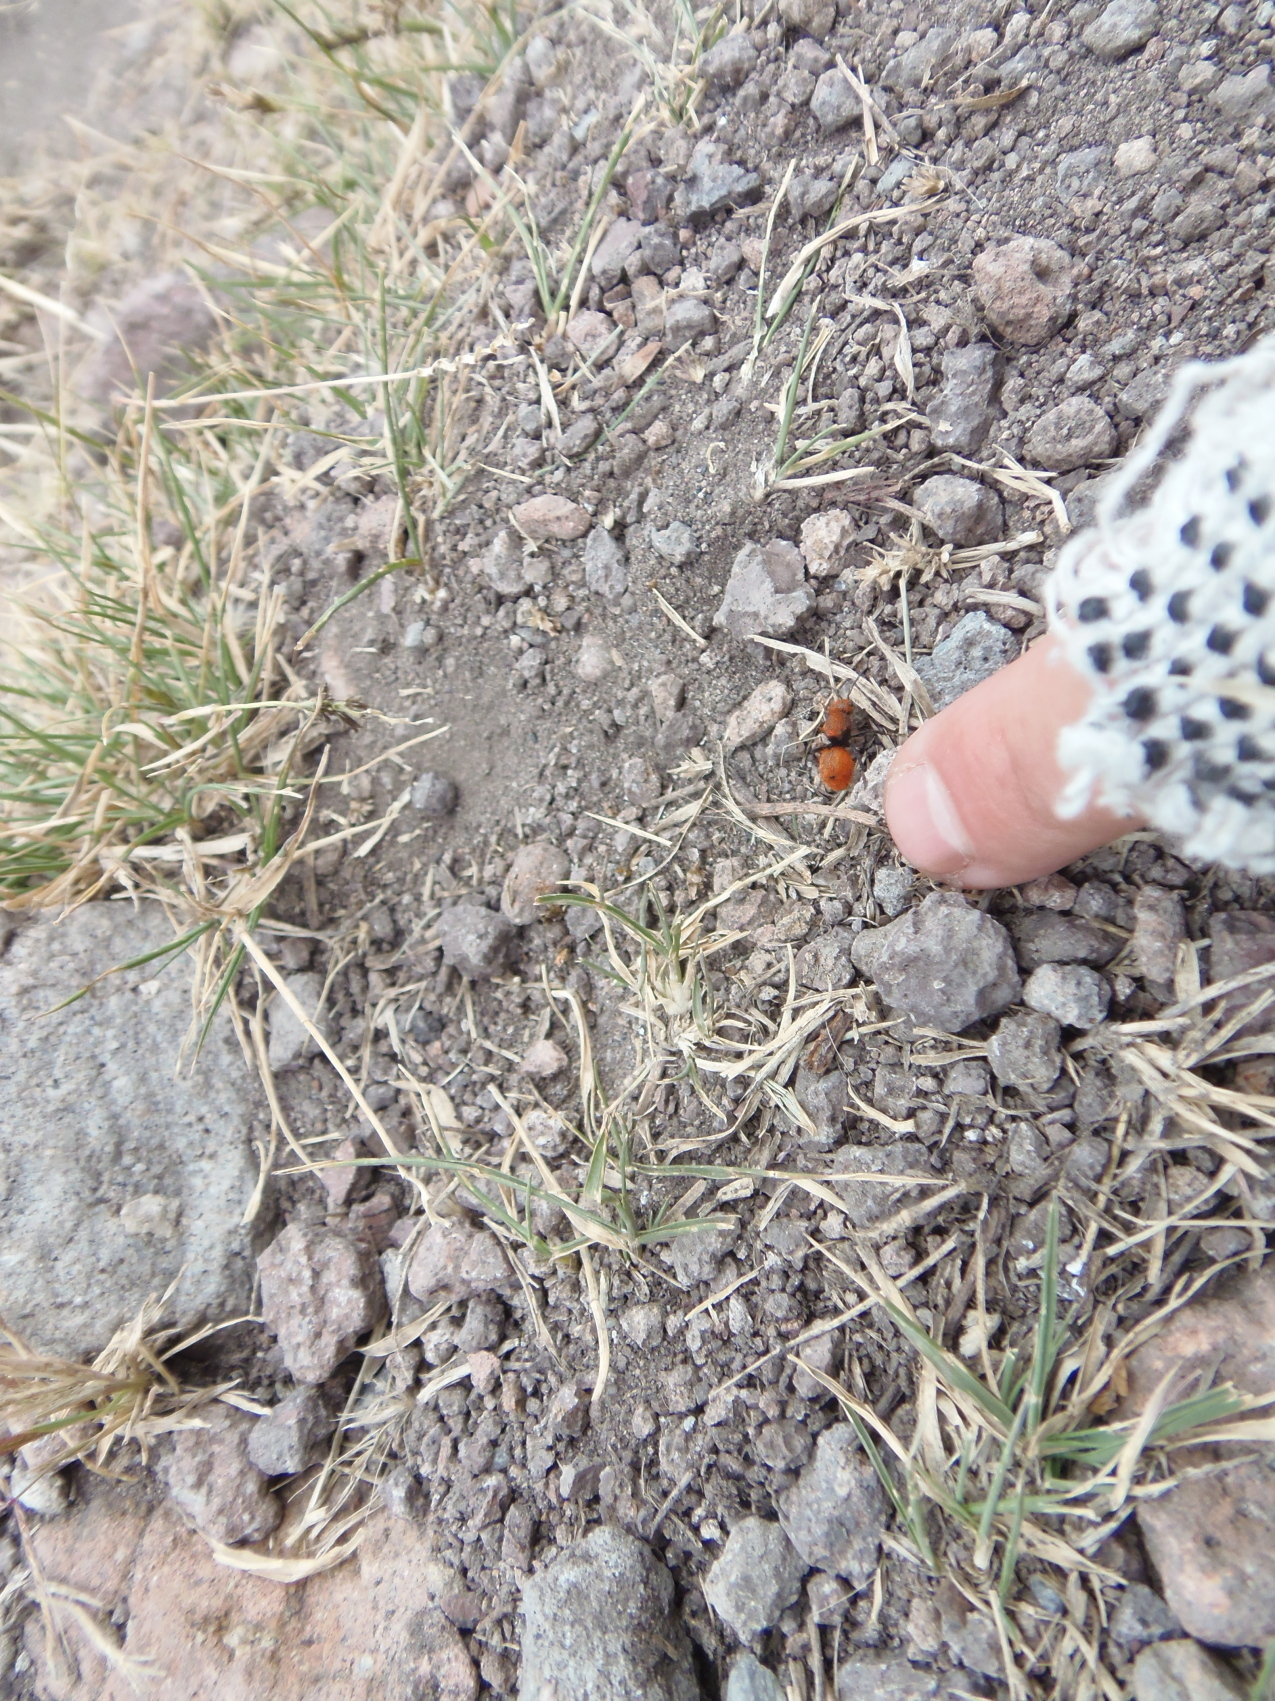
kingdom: Animalia
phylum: Arthropoda
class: Insecta
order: Hymenoptera
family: Mutillidae
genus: Dasymutilla
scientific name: Dasymutilla
